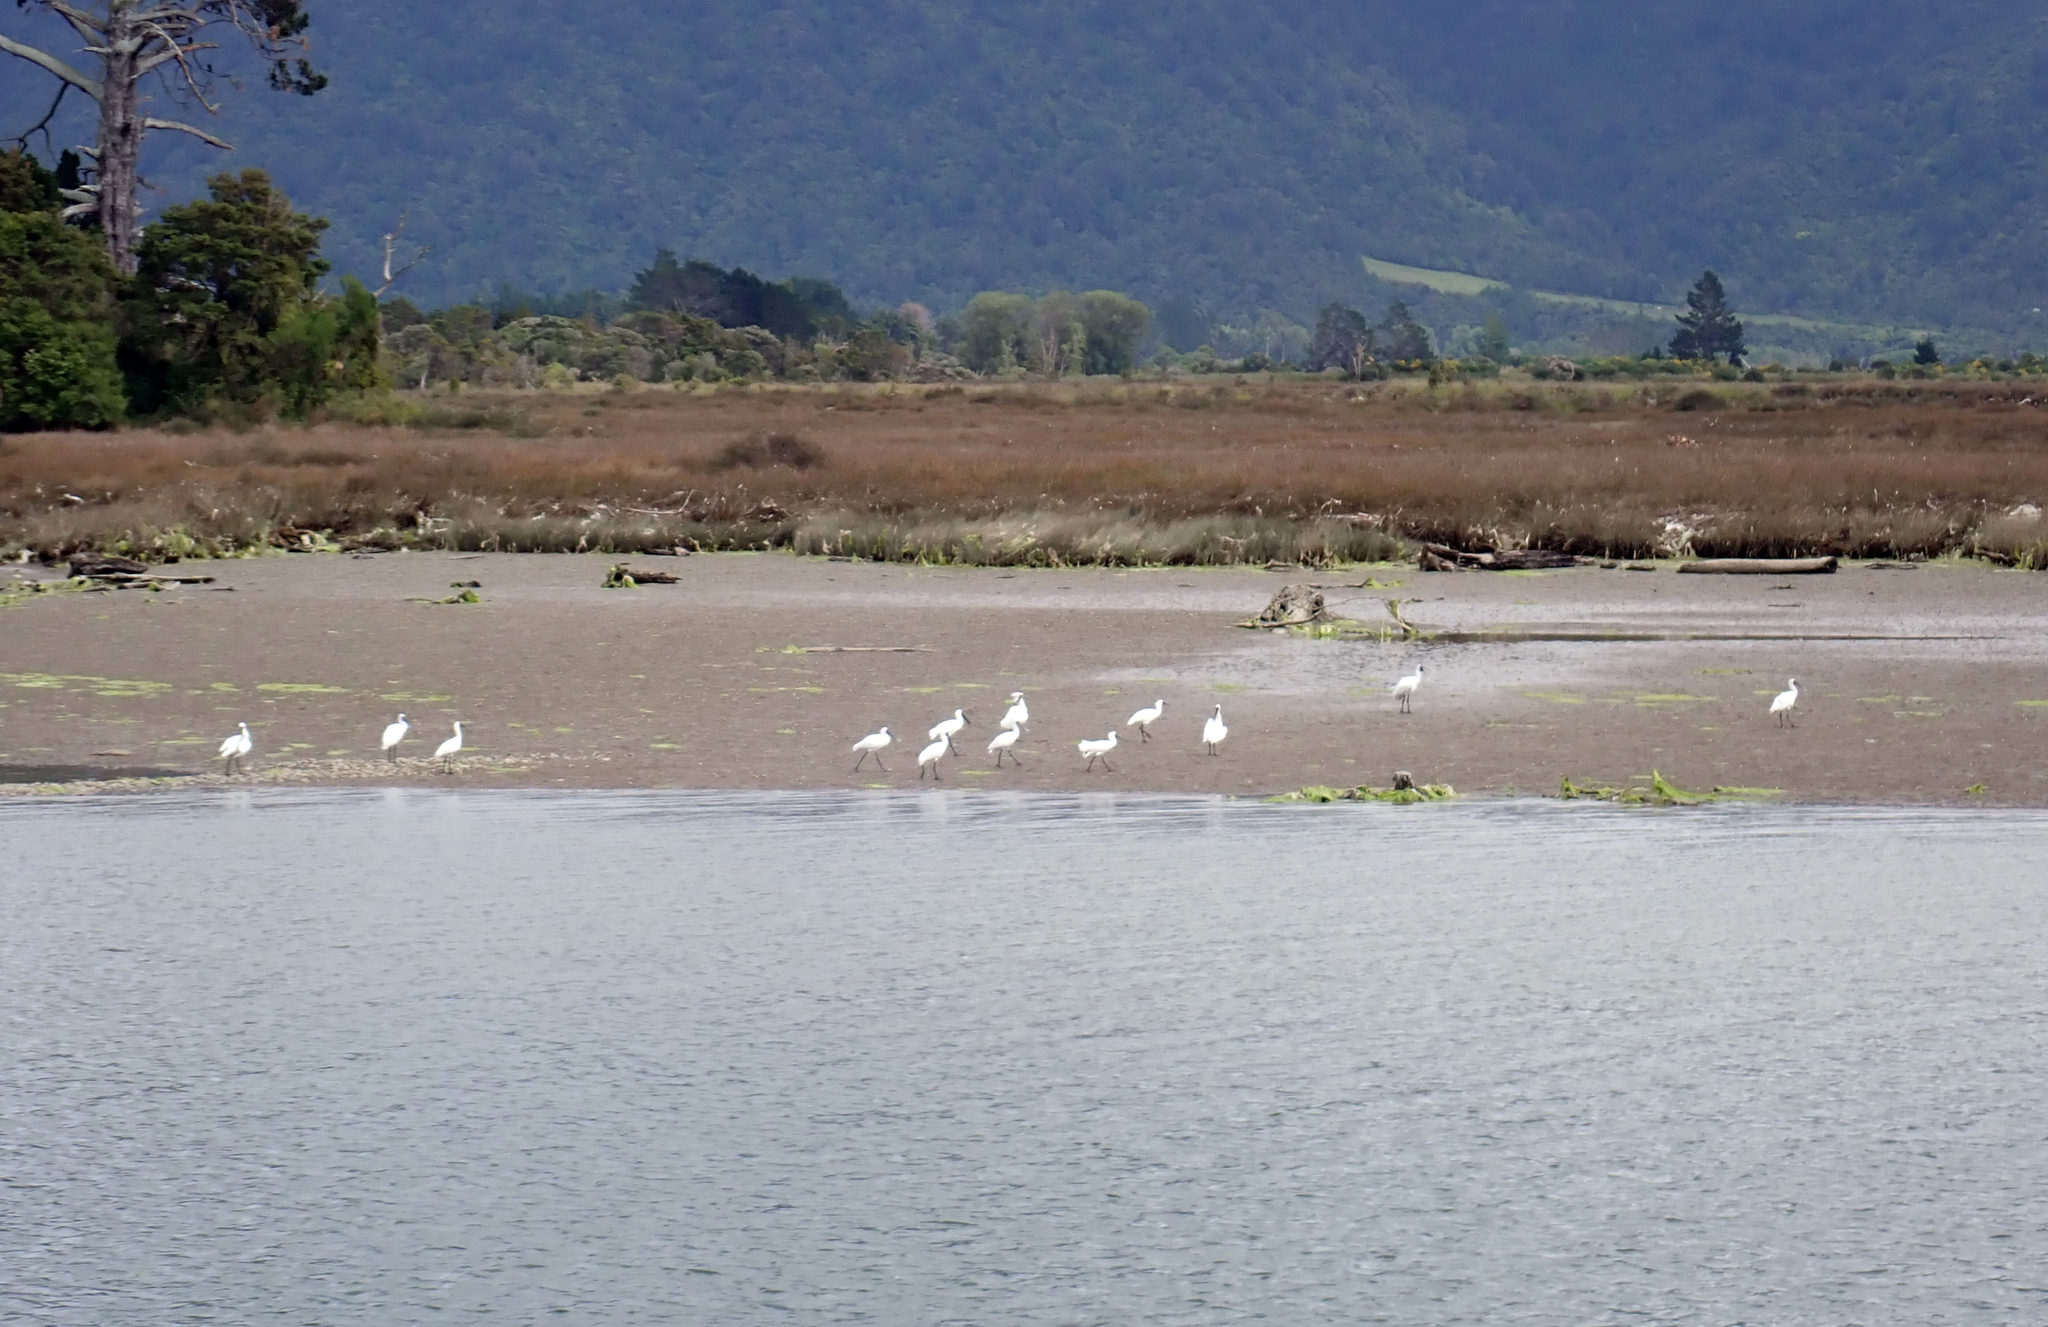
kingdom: Animalia
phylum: Chordata
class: Aves
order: Pelecaniformes
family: Threskiornithidae
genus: Platalea
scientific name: Platalea regia
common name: Royal spoonbill
